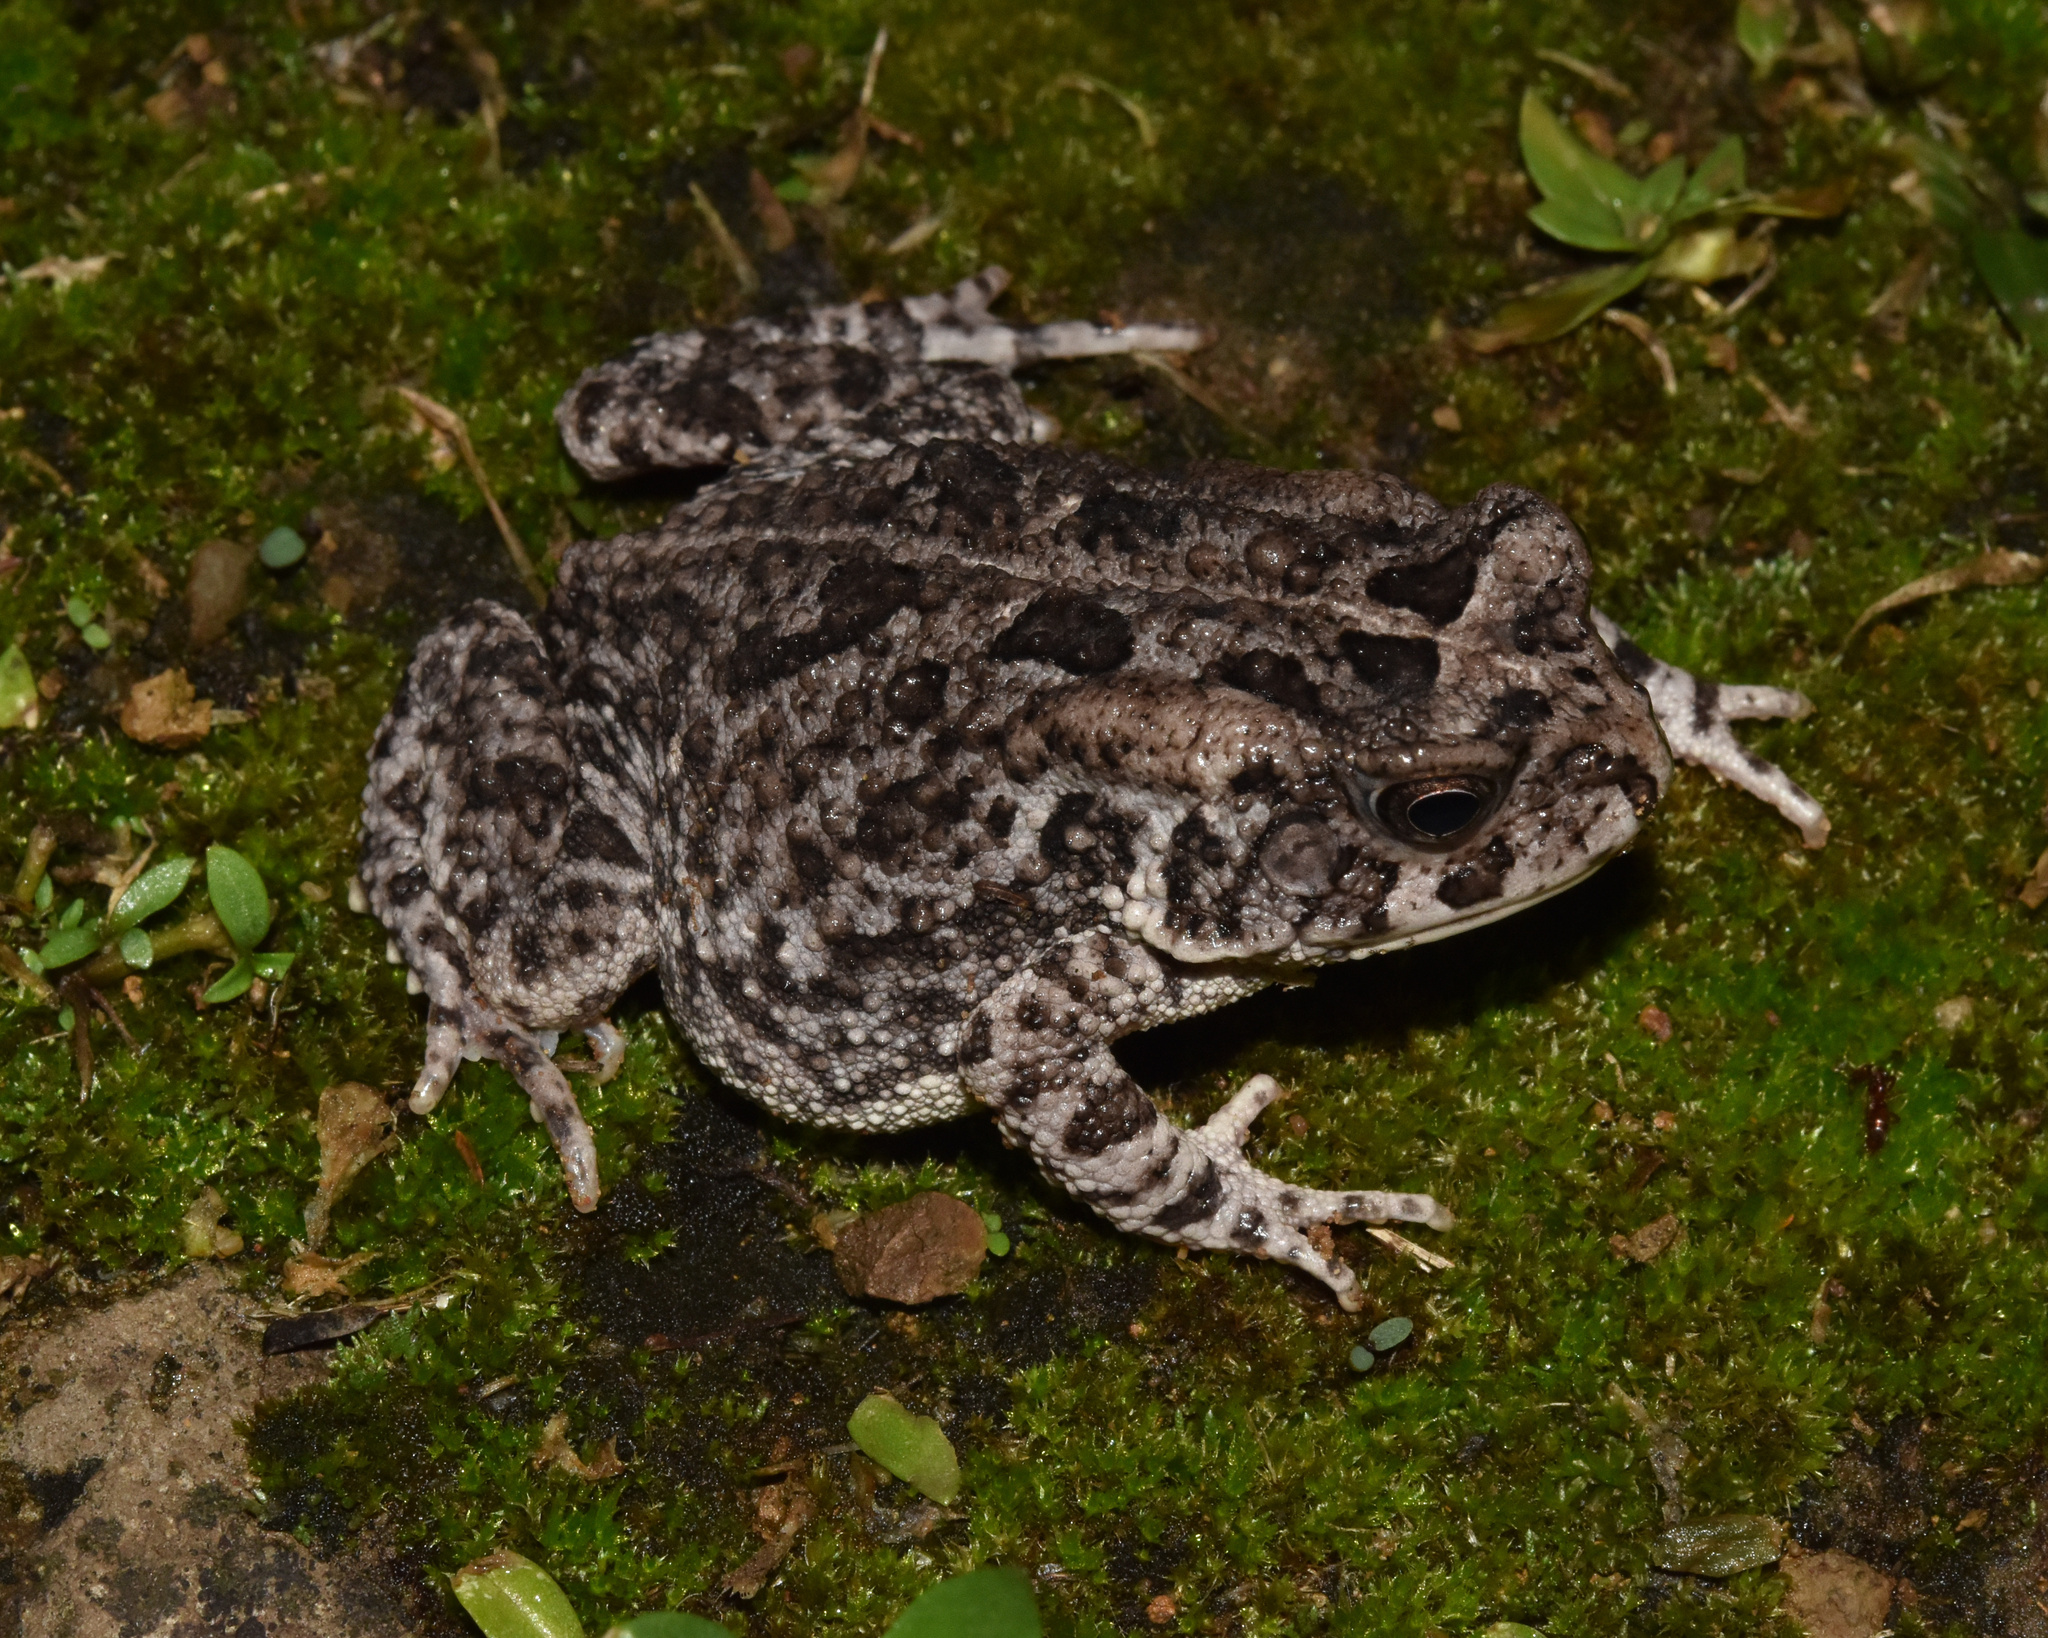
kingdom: Animalia
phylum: Chordata
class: Amphibia
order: Anura
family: Bufonidae
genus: Sclerophrys
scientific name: Sclerophrys gutturalis
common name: African common toad
